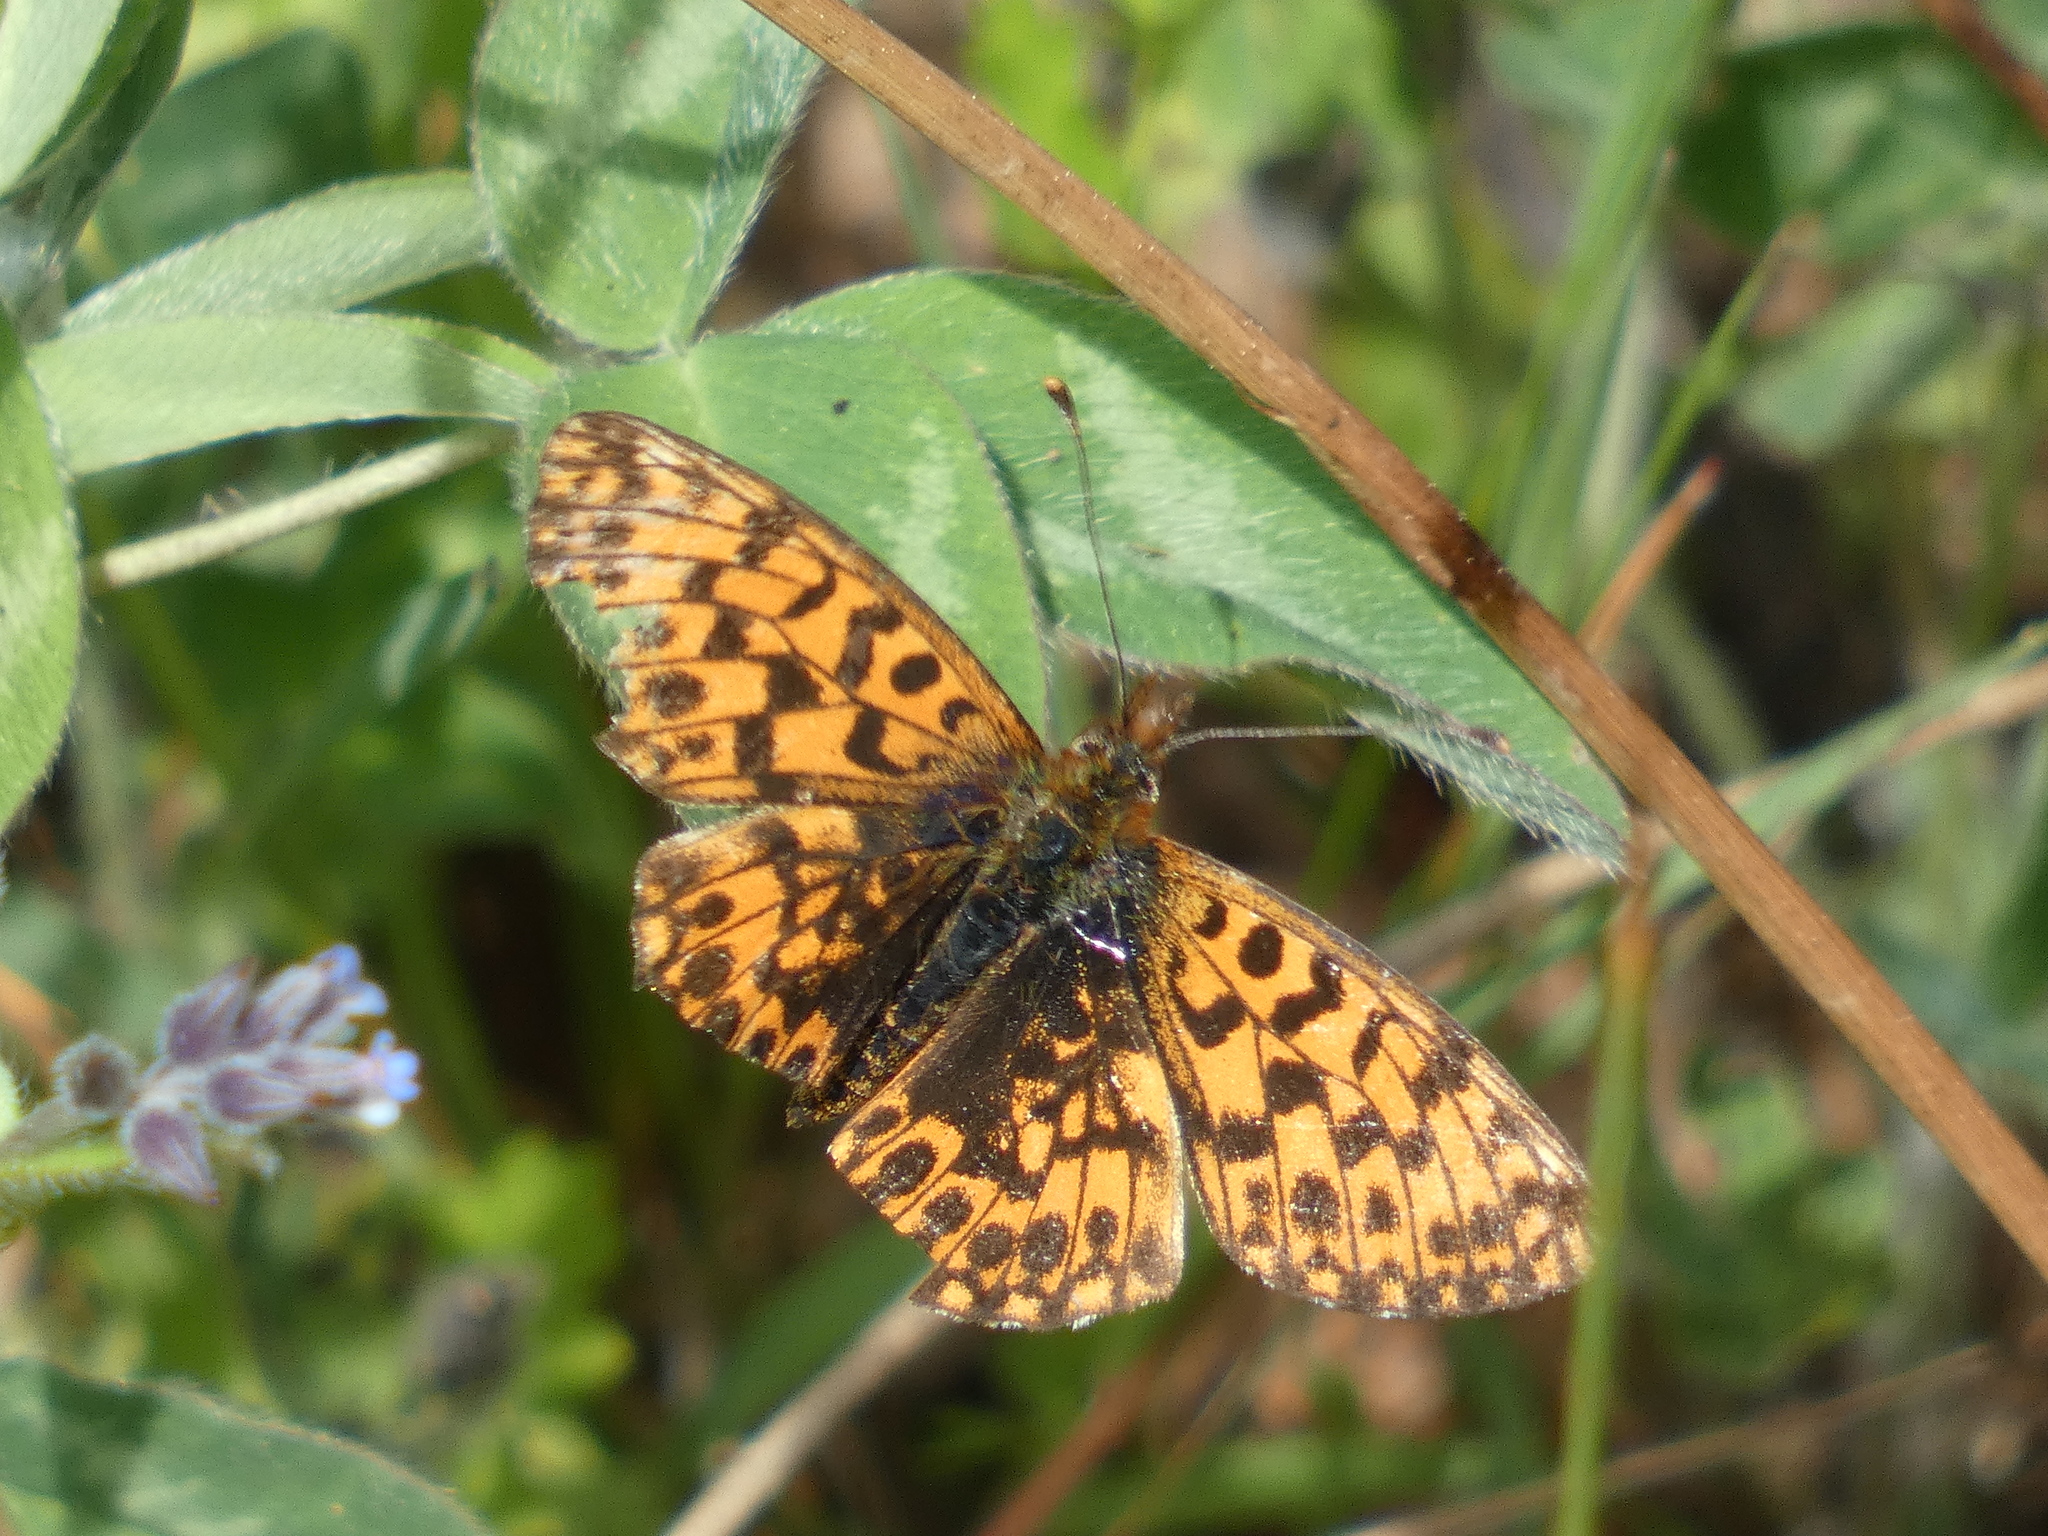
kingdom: Animalia
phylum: Arthropoda
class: Insecta
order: Lepidoptera
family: Nymphalidae
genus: Boloria
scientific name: Boloria dia
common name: Weaver's fritillary
